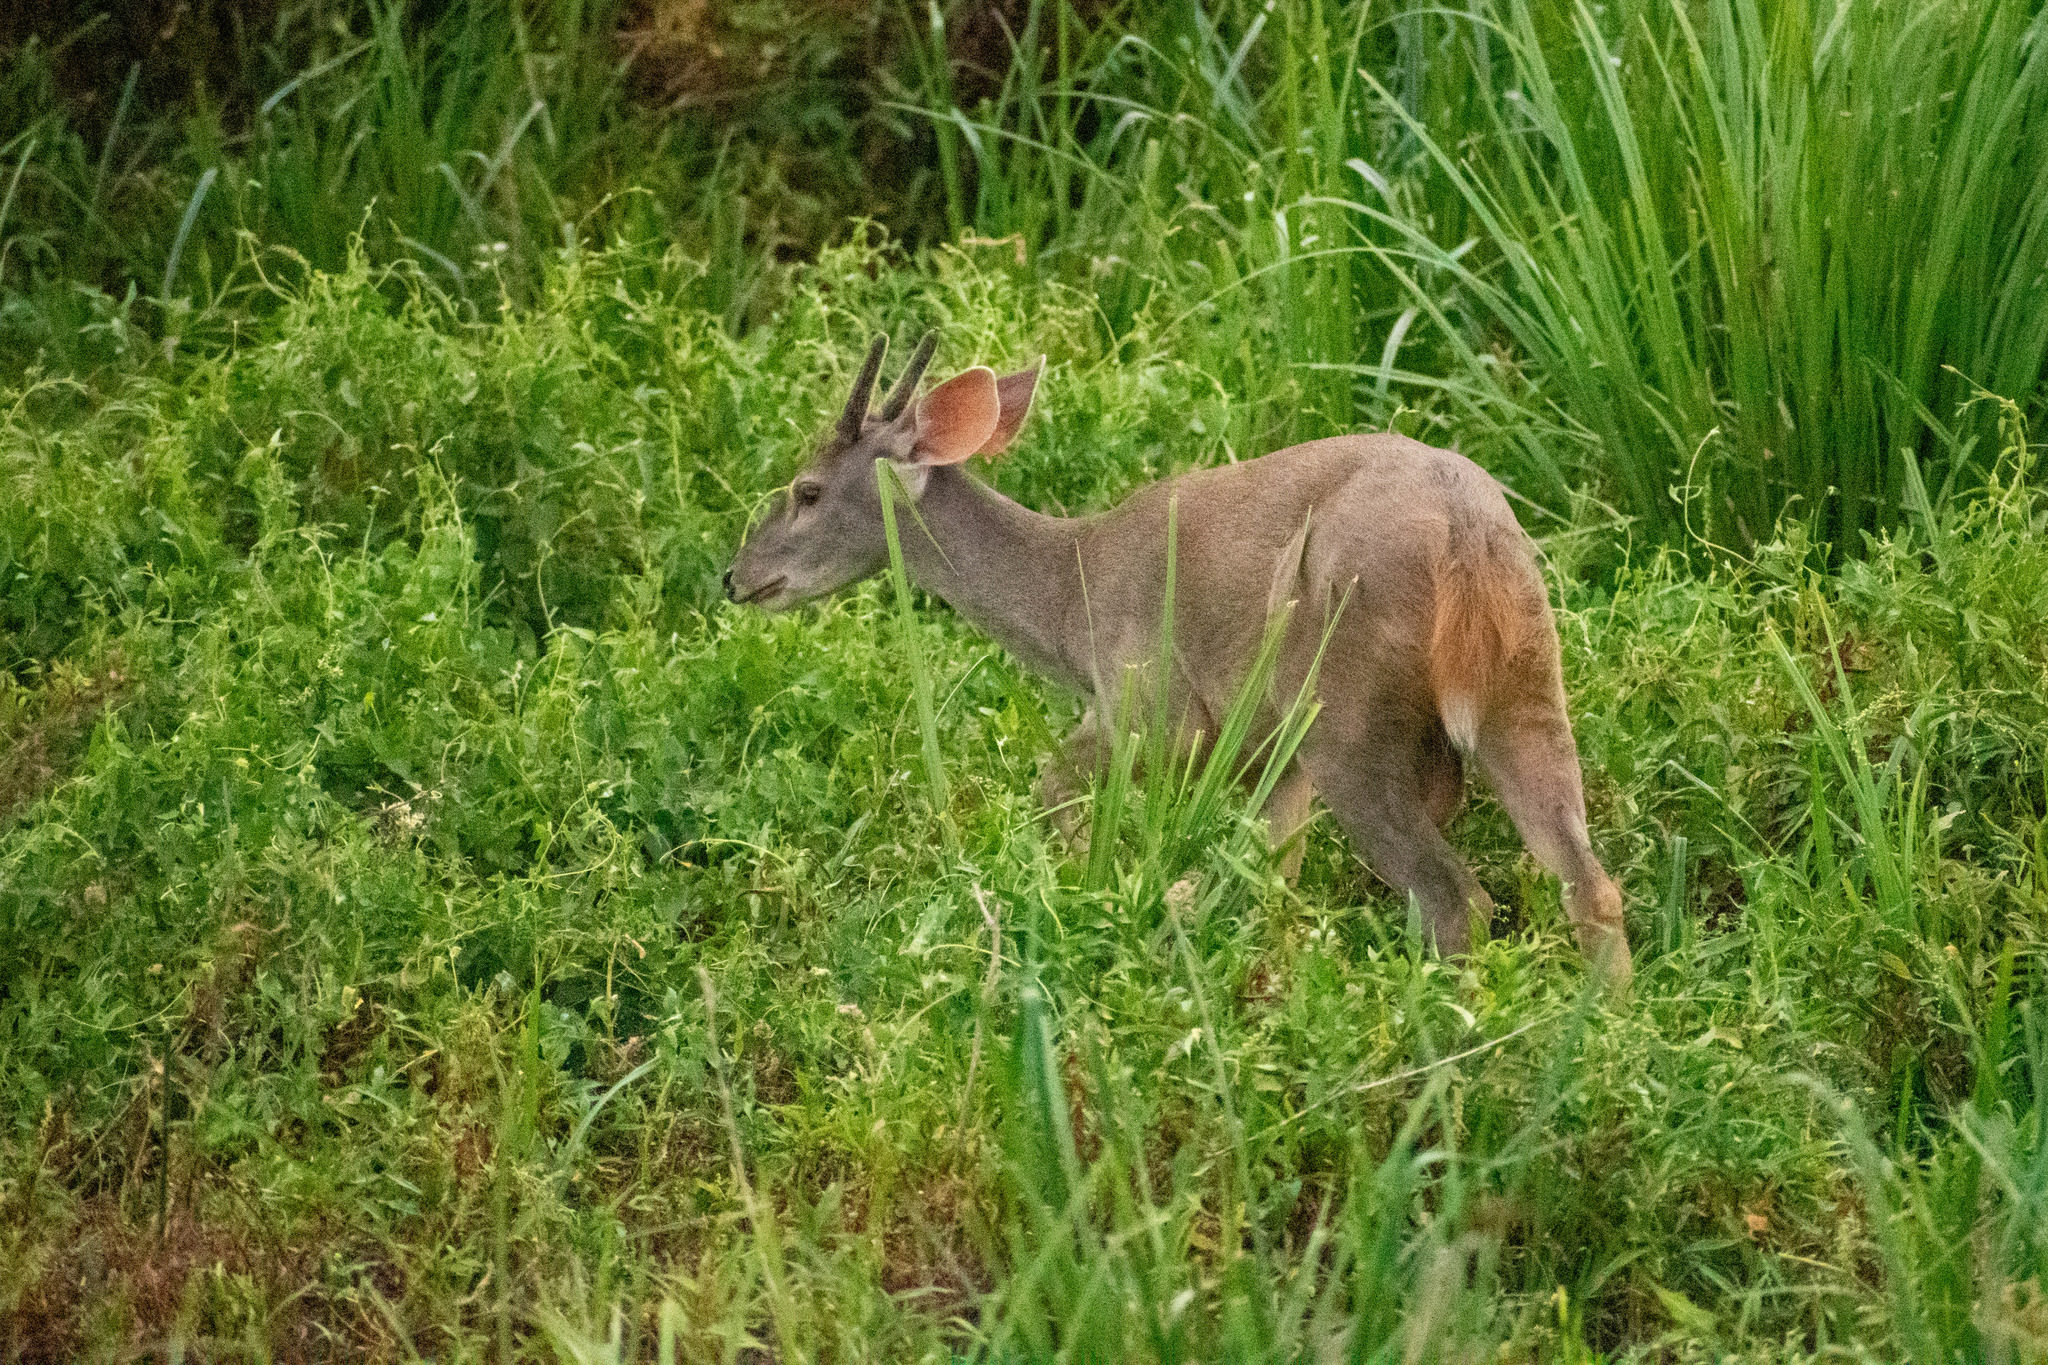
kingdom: Animalia
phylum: Chordata
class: Mammalia
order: Artiodactyla
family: Cervidae
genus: Mazama
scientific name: Mazama gouazoubira
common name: Gray brocket
